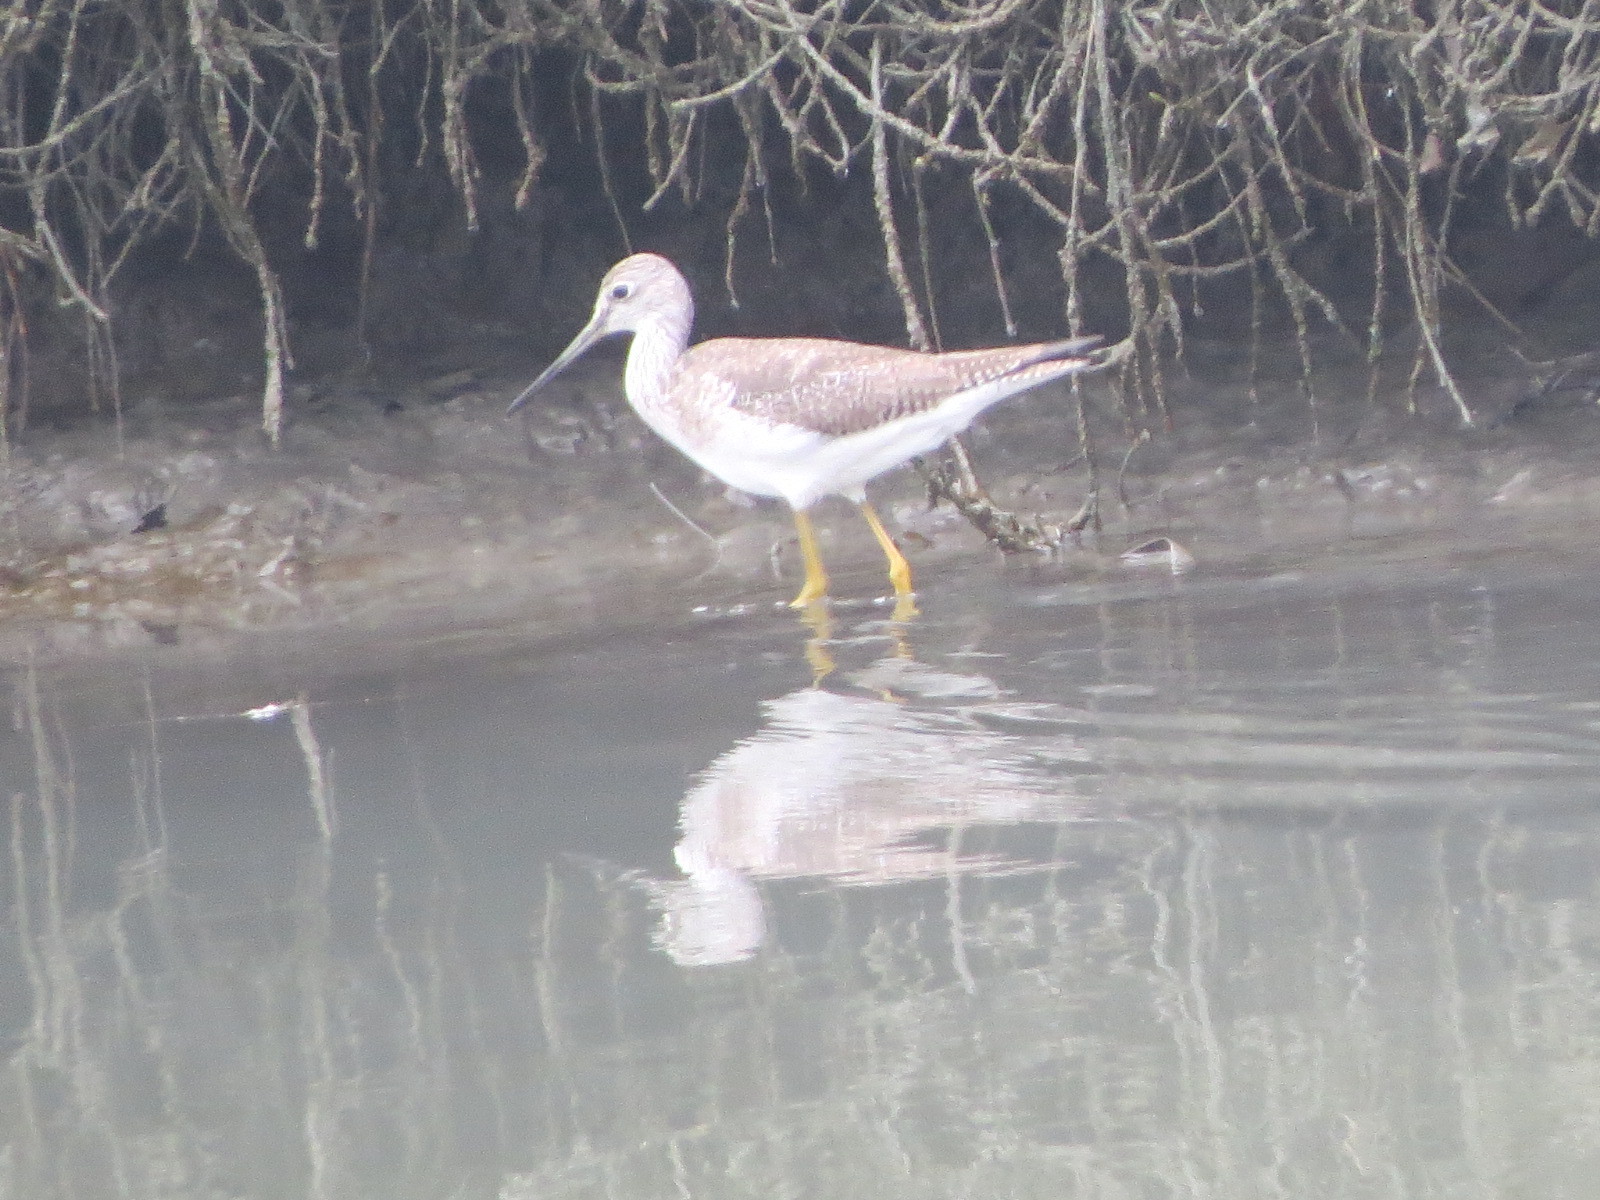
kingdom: Animalia
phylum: Chordata
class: Aves
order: Charadriiformes
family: Scolopacidae
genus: Tringa
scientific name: Tringa melanoleuca
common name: Greater yellowlegs
